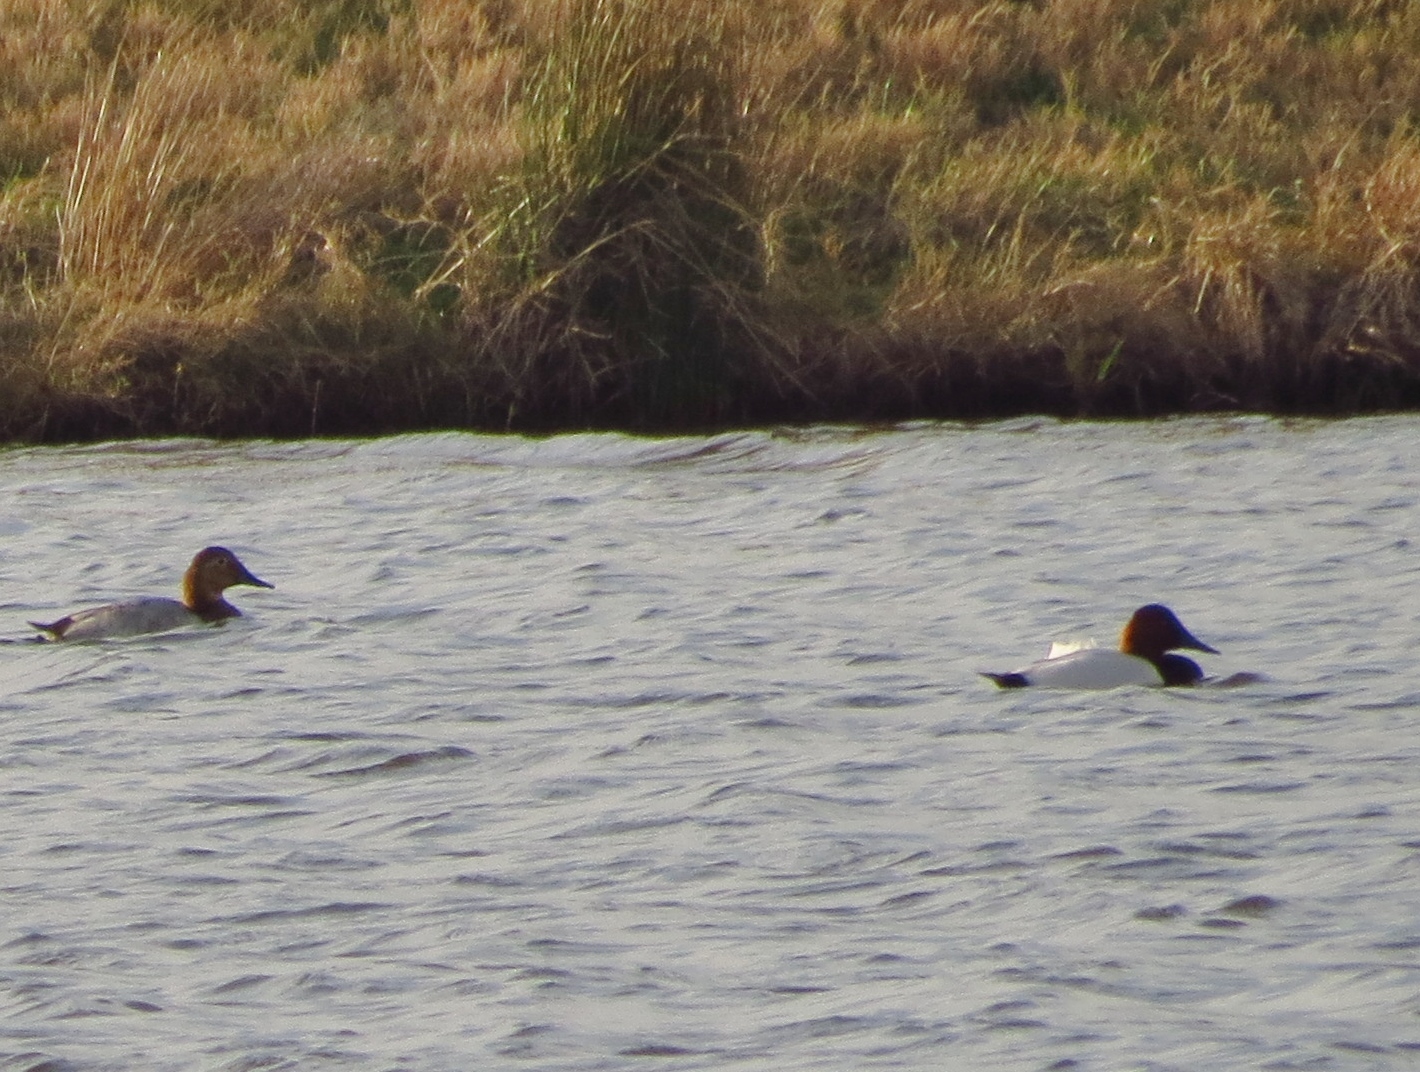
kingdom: Animalia
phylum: Chordata
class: Aves
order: Anseriformes
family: Anatidae
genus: Aythya
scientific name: Aythya valisineria
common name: Canvasback
